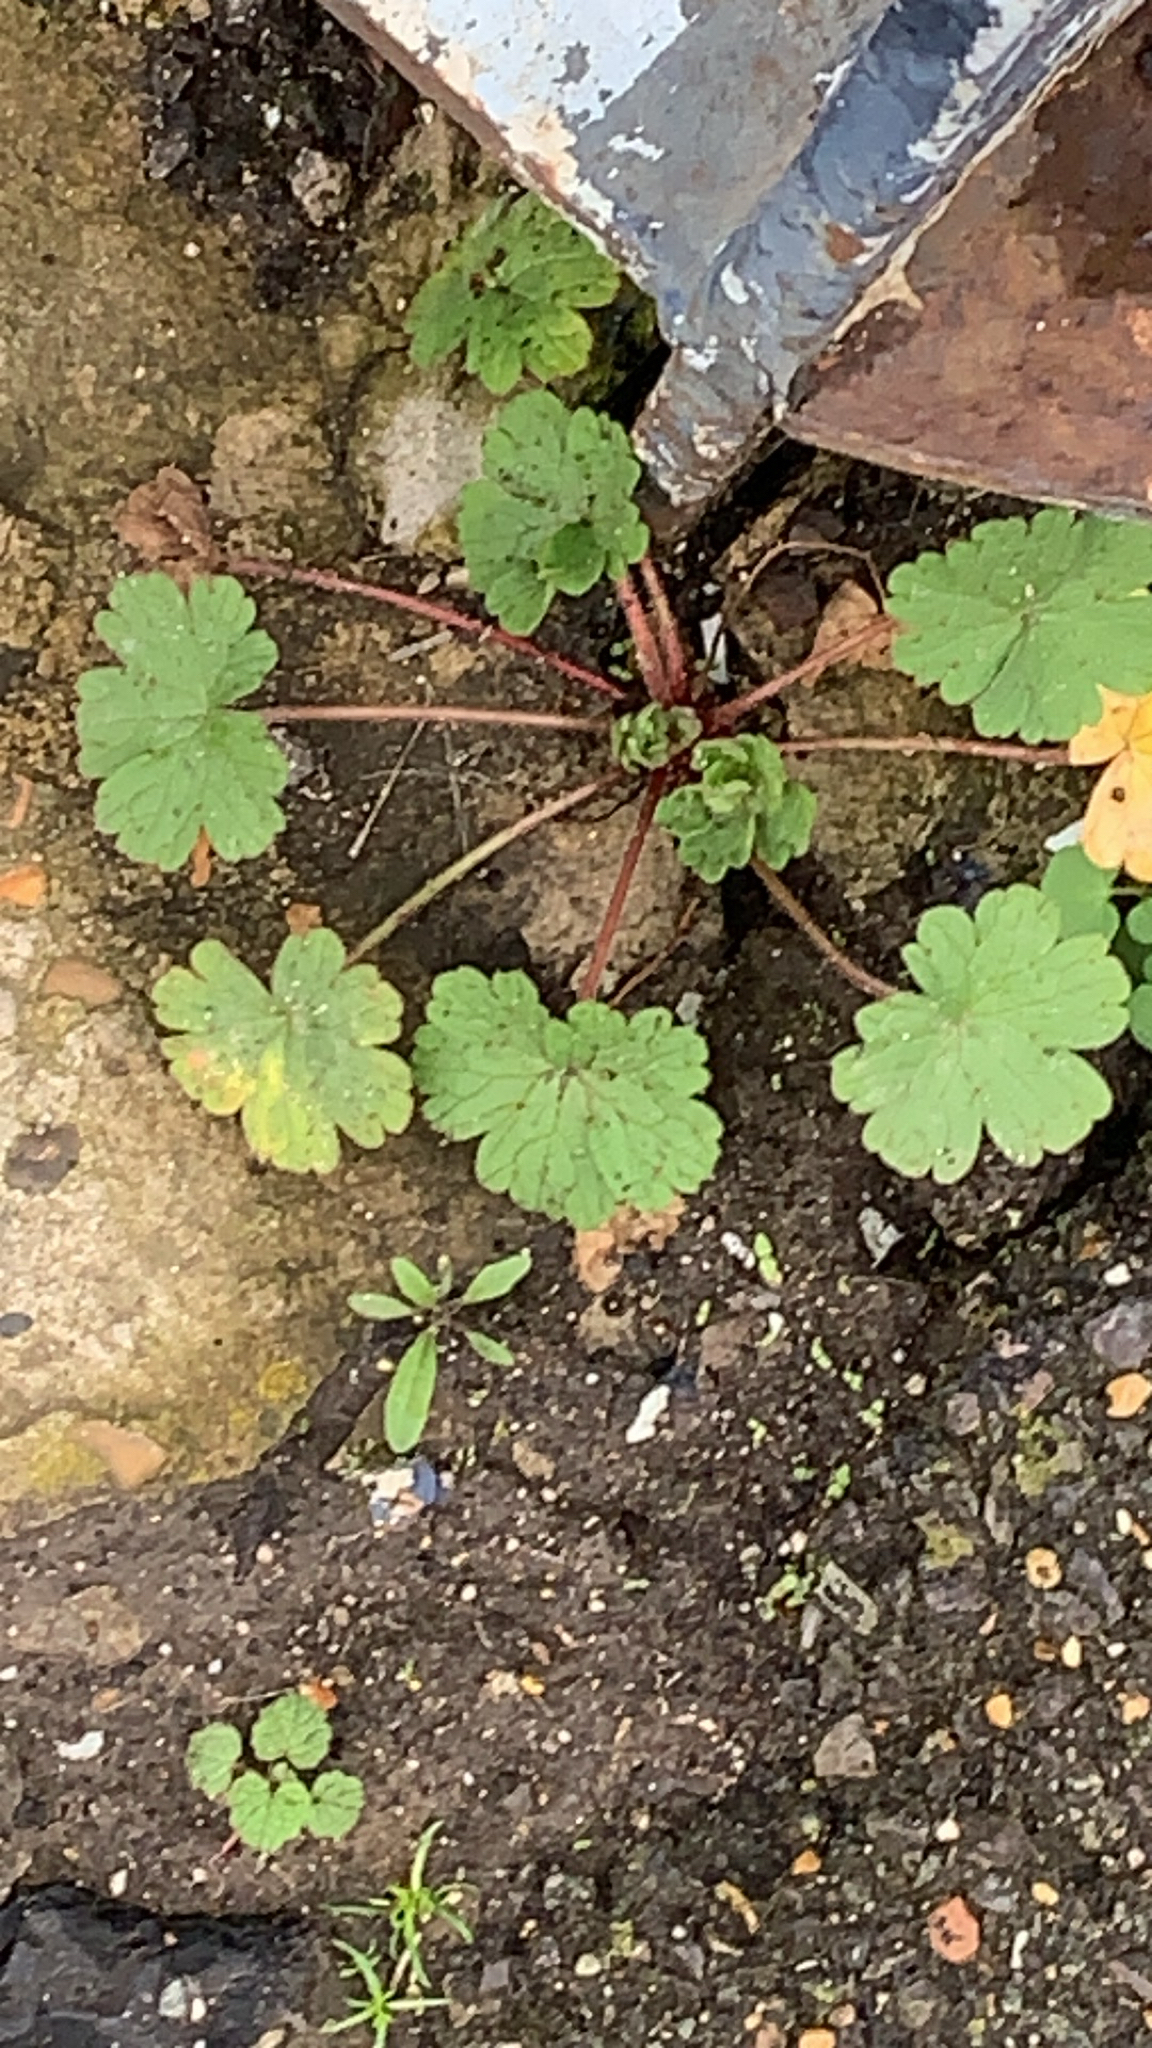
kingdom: Plantae
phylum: Tracheophyta
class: Magnoliopsida
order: Geraniales
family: Geraniaceae
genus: Geranium
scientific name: Geranium rotundifolium
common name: Round-leaved crane's-bill
